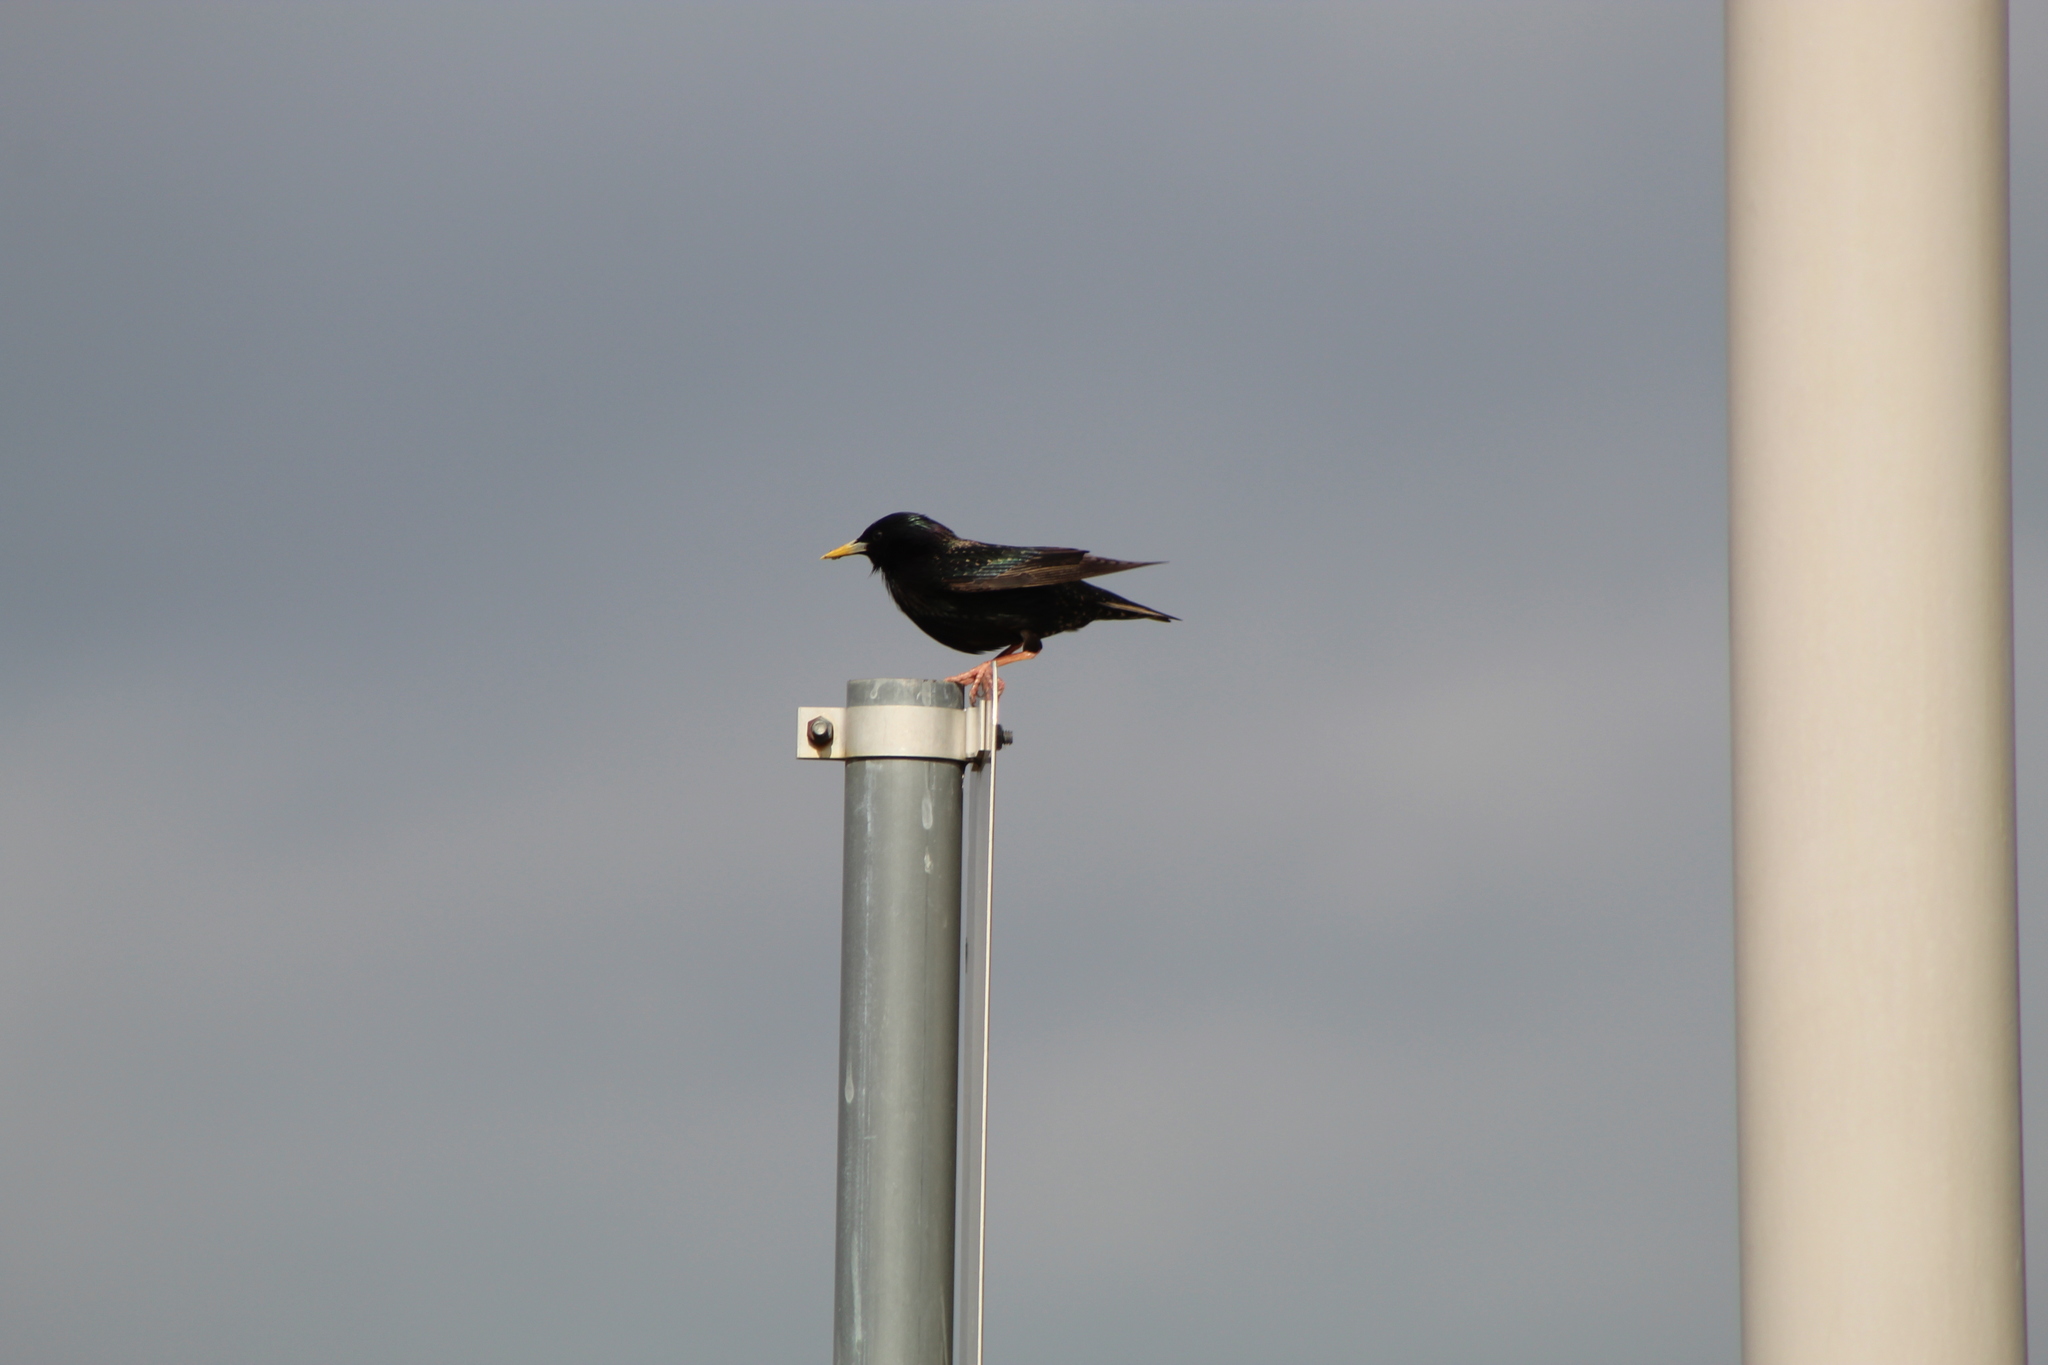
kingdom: Animalia
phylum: Chordata
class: Aves
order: Passeriformes
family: Sturnidae
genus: Sturnus
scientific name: Sturnus vulgaris
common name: Common starling
